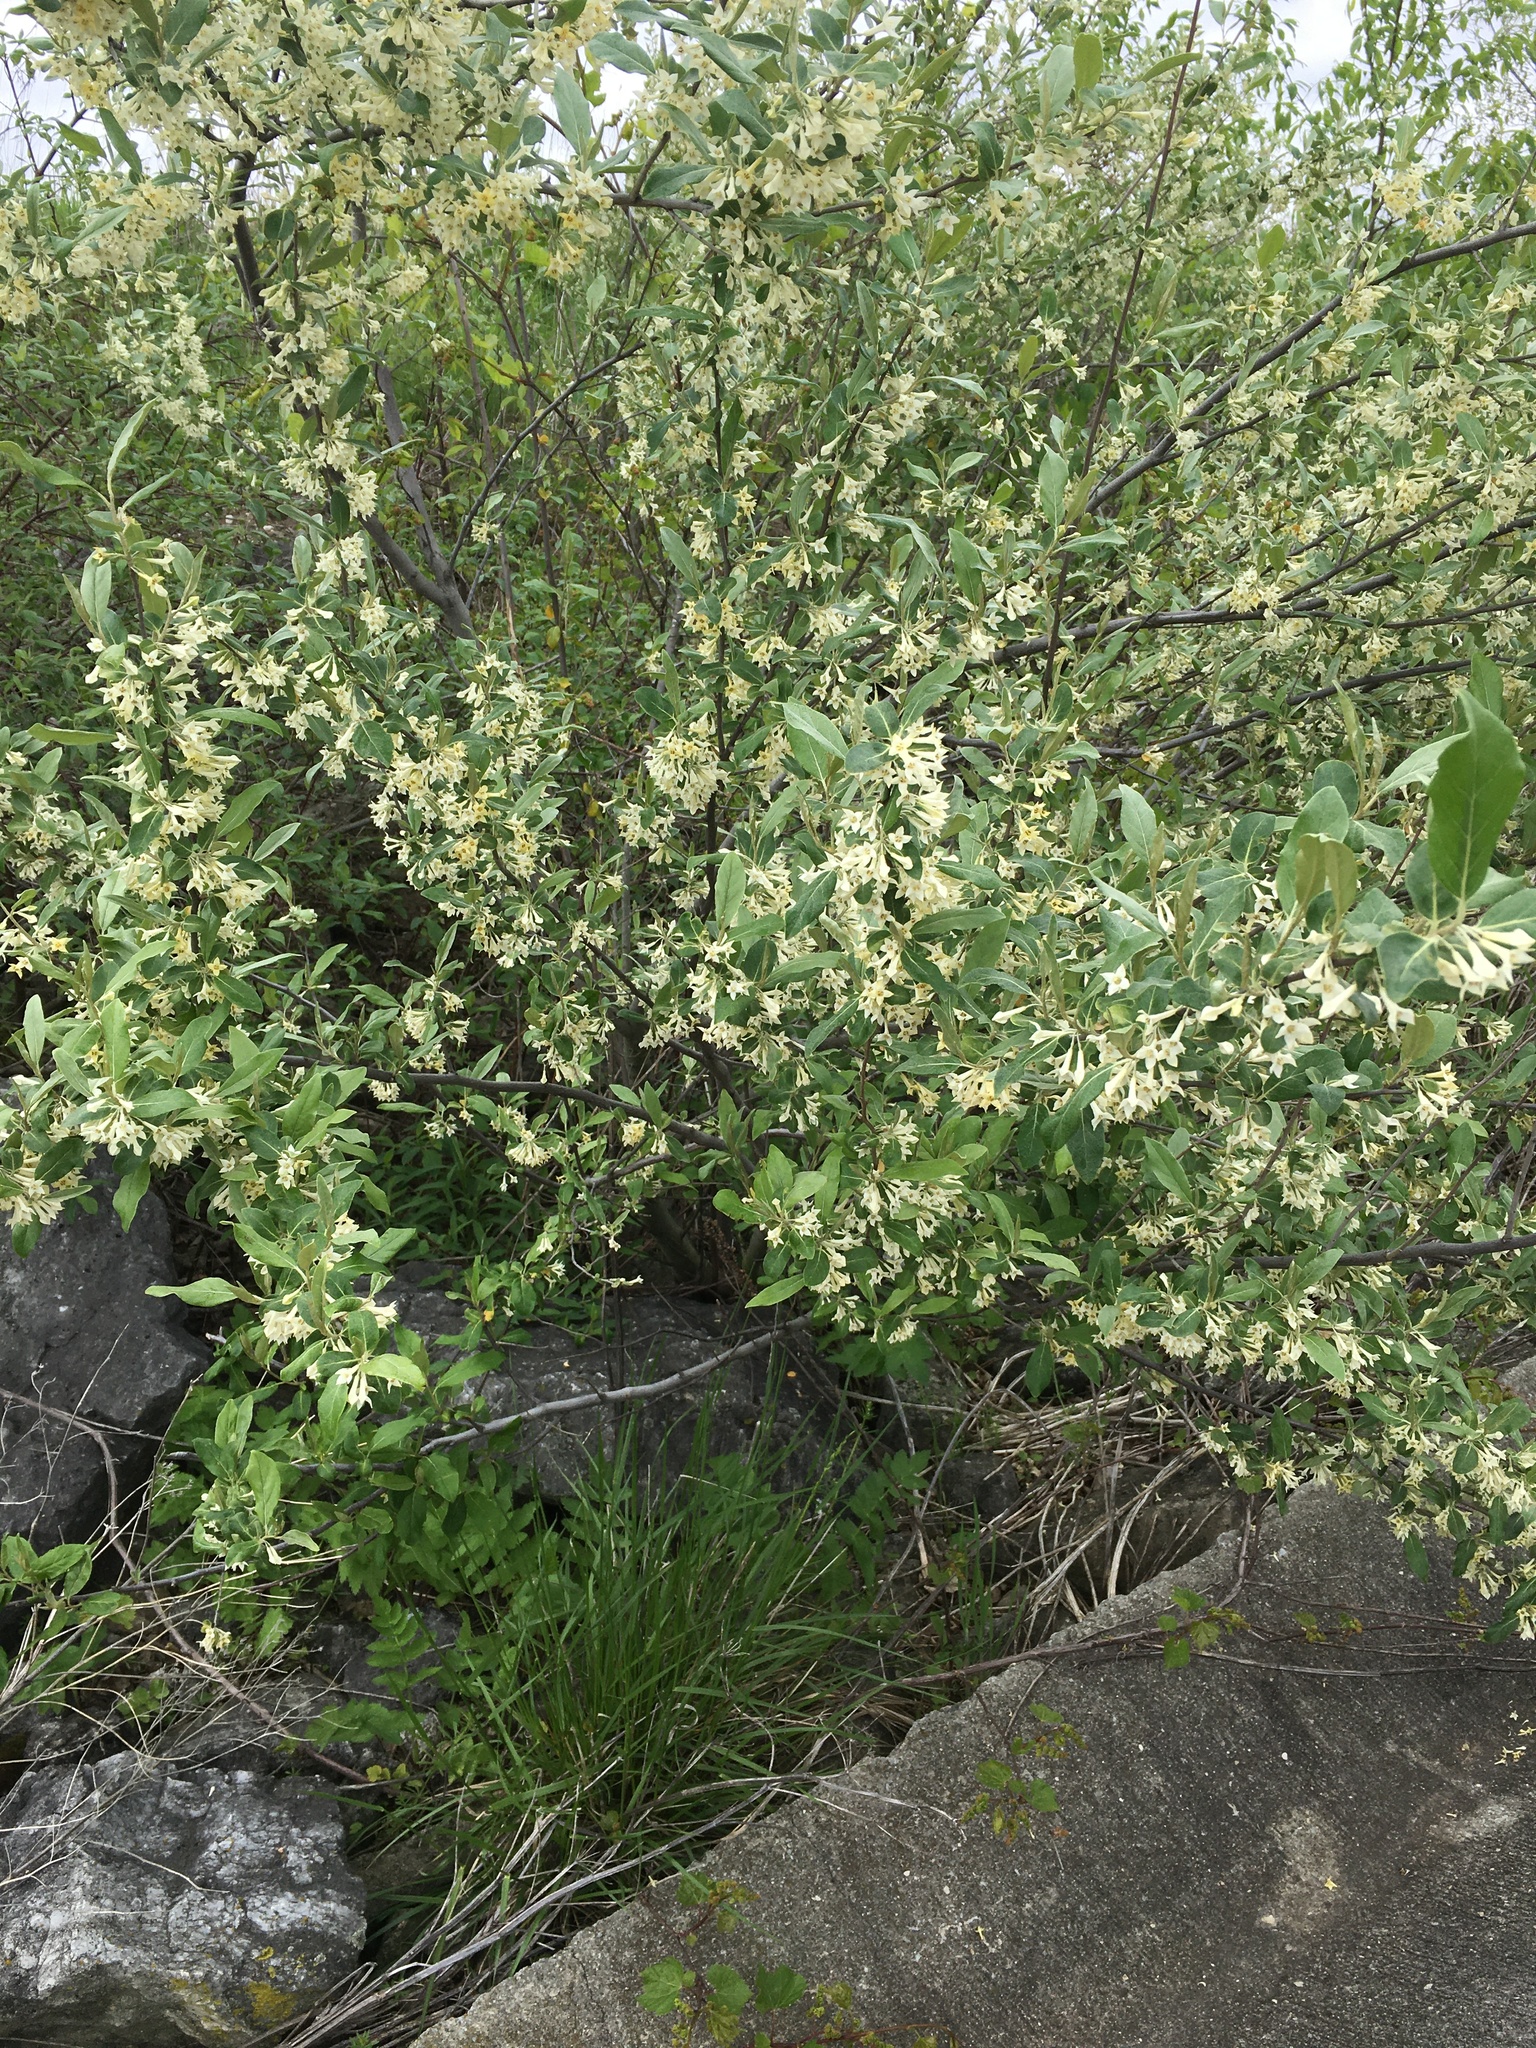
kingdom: Plantae
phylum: Tracheophyta
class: Magnoliopsida
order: Rosales
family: Elaeagnaceae
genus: Elaeagnus
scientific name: Elaeagnus umbellata
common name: Autumn olive
